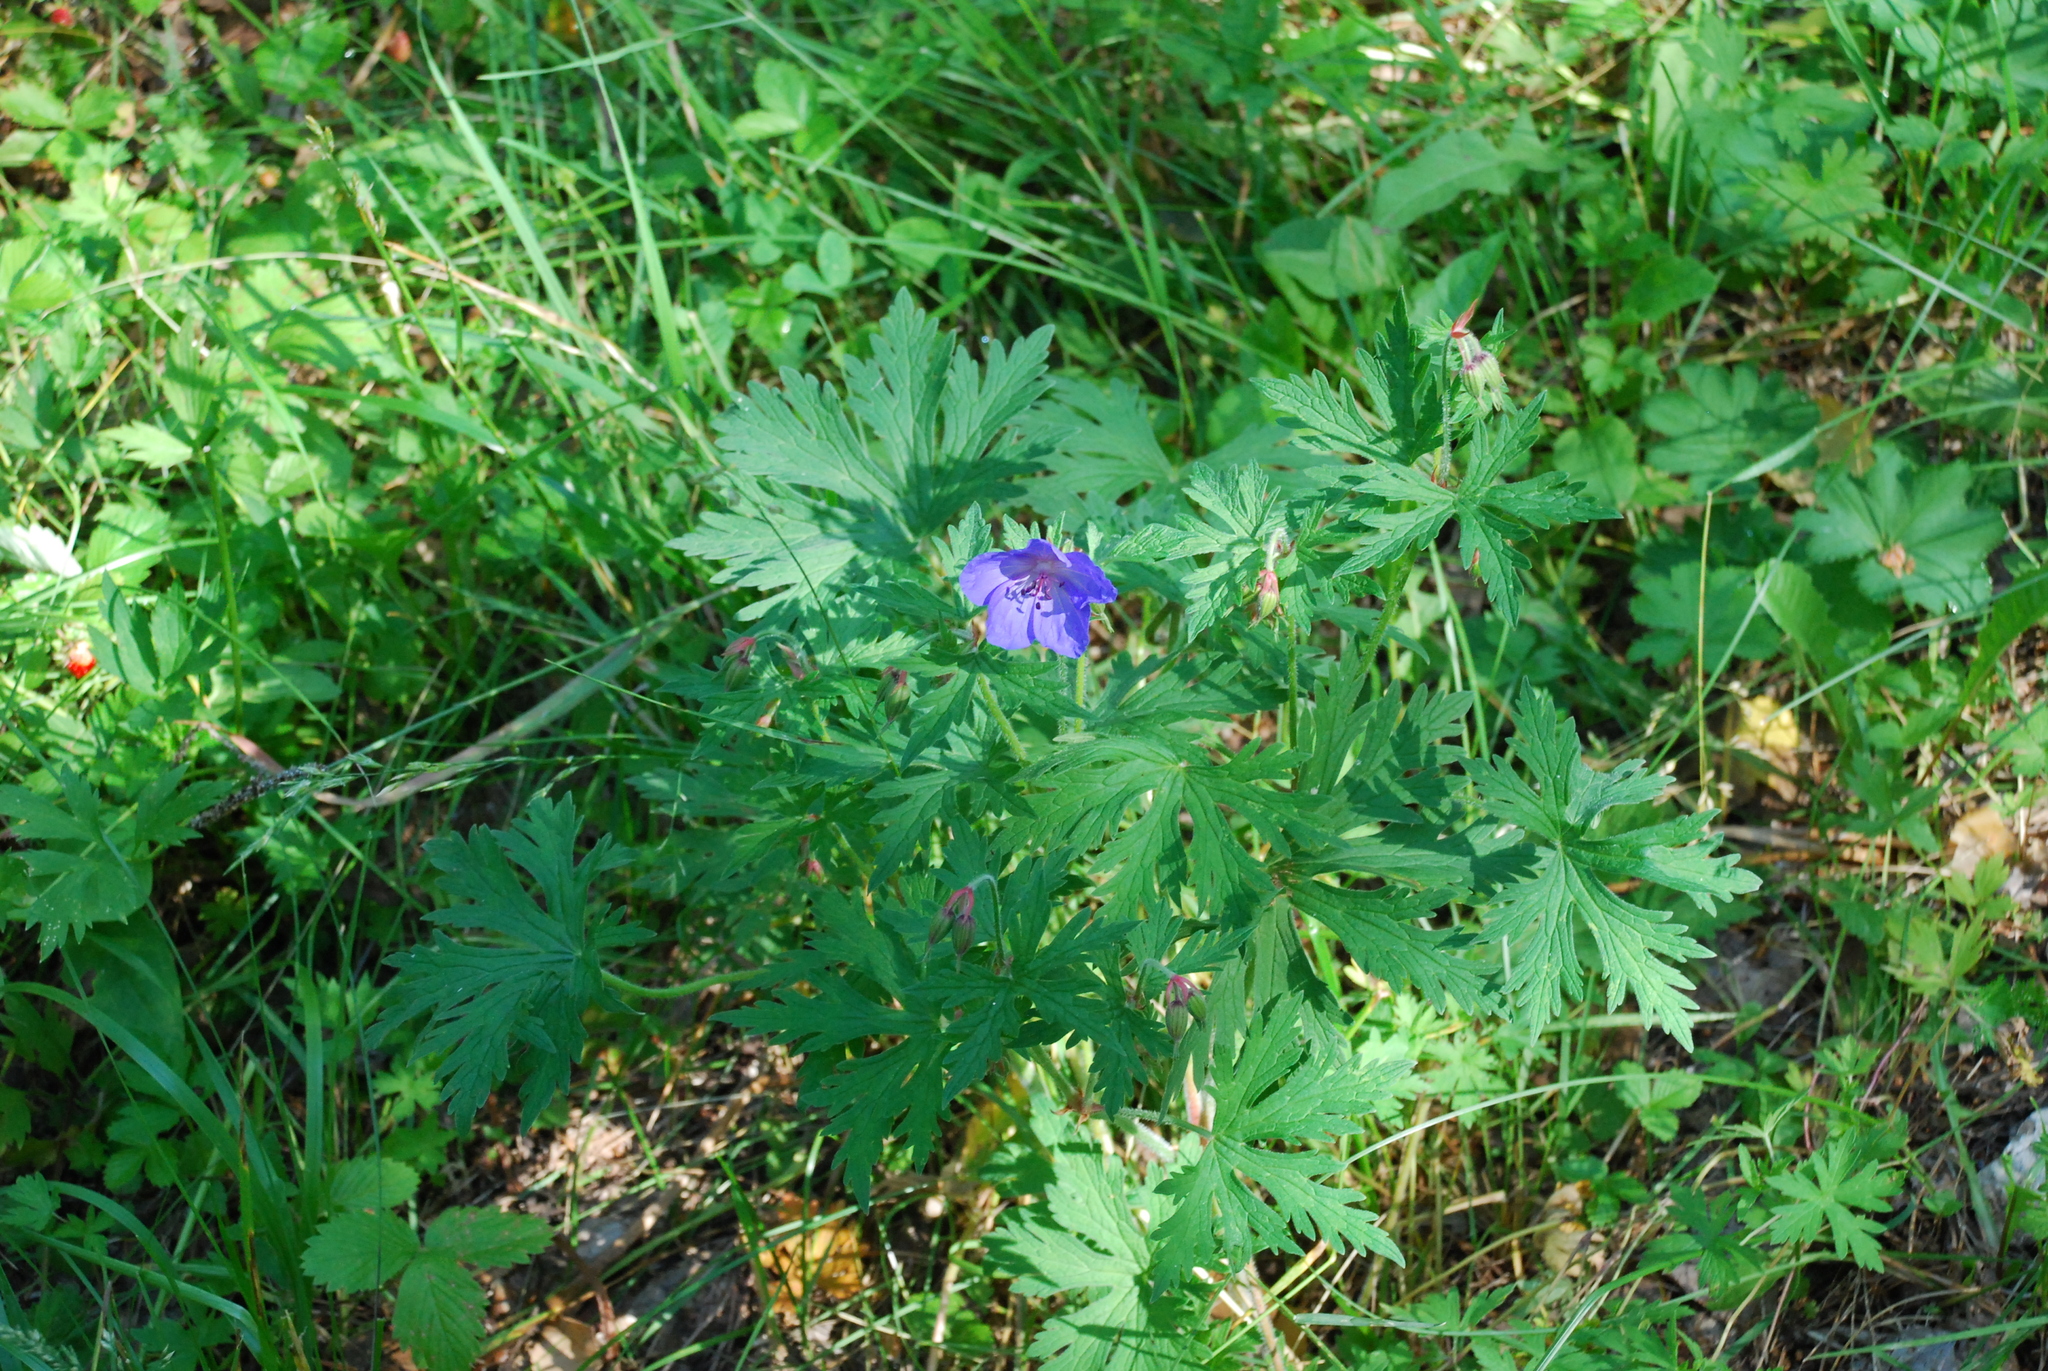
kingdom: Plantae
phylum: Tracheophyta
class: Magnoliopsida
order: Geraniales
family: Geraniaceae
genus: Geranium
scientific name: Geranium pratense
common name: Meadow crane's-bill
